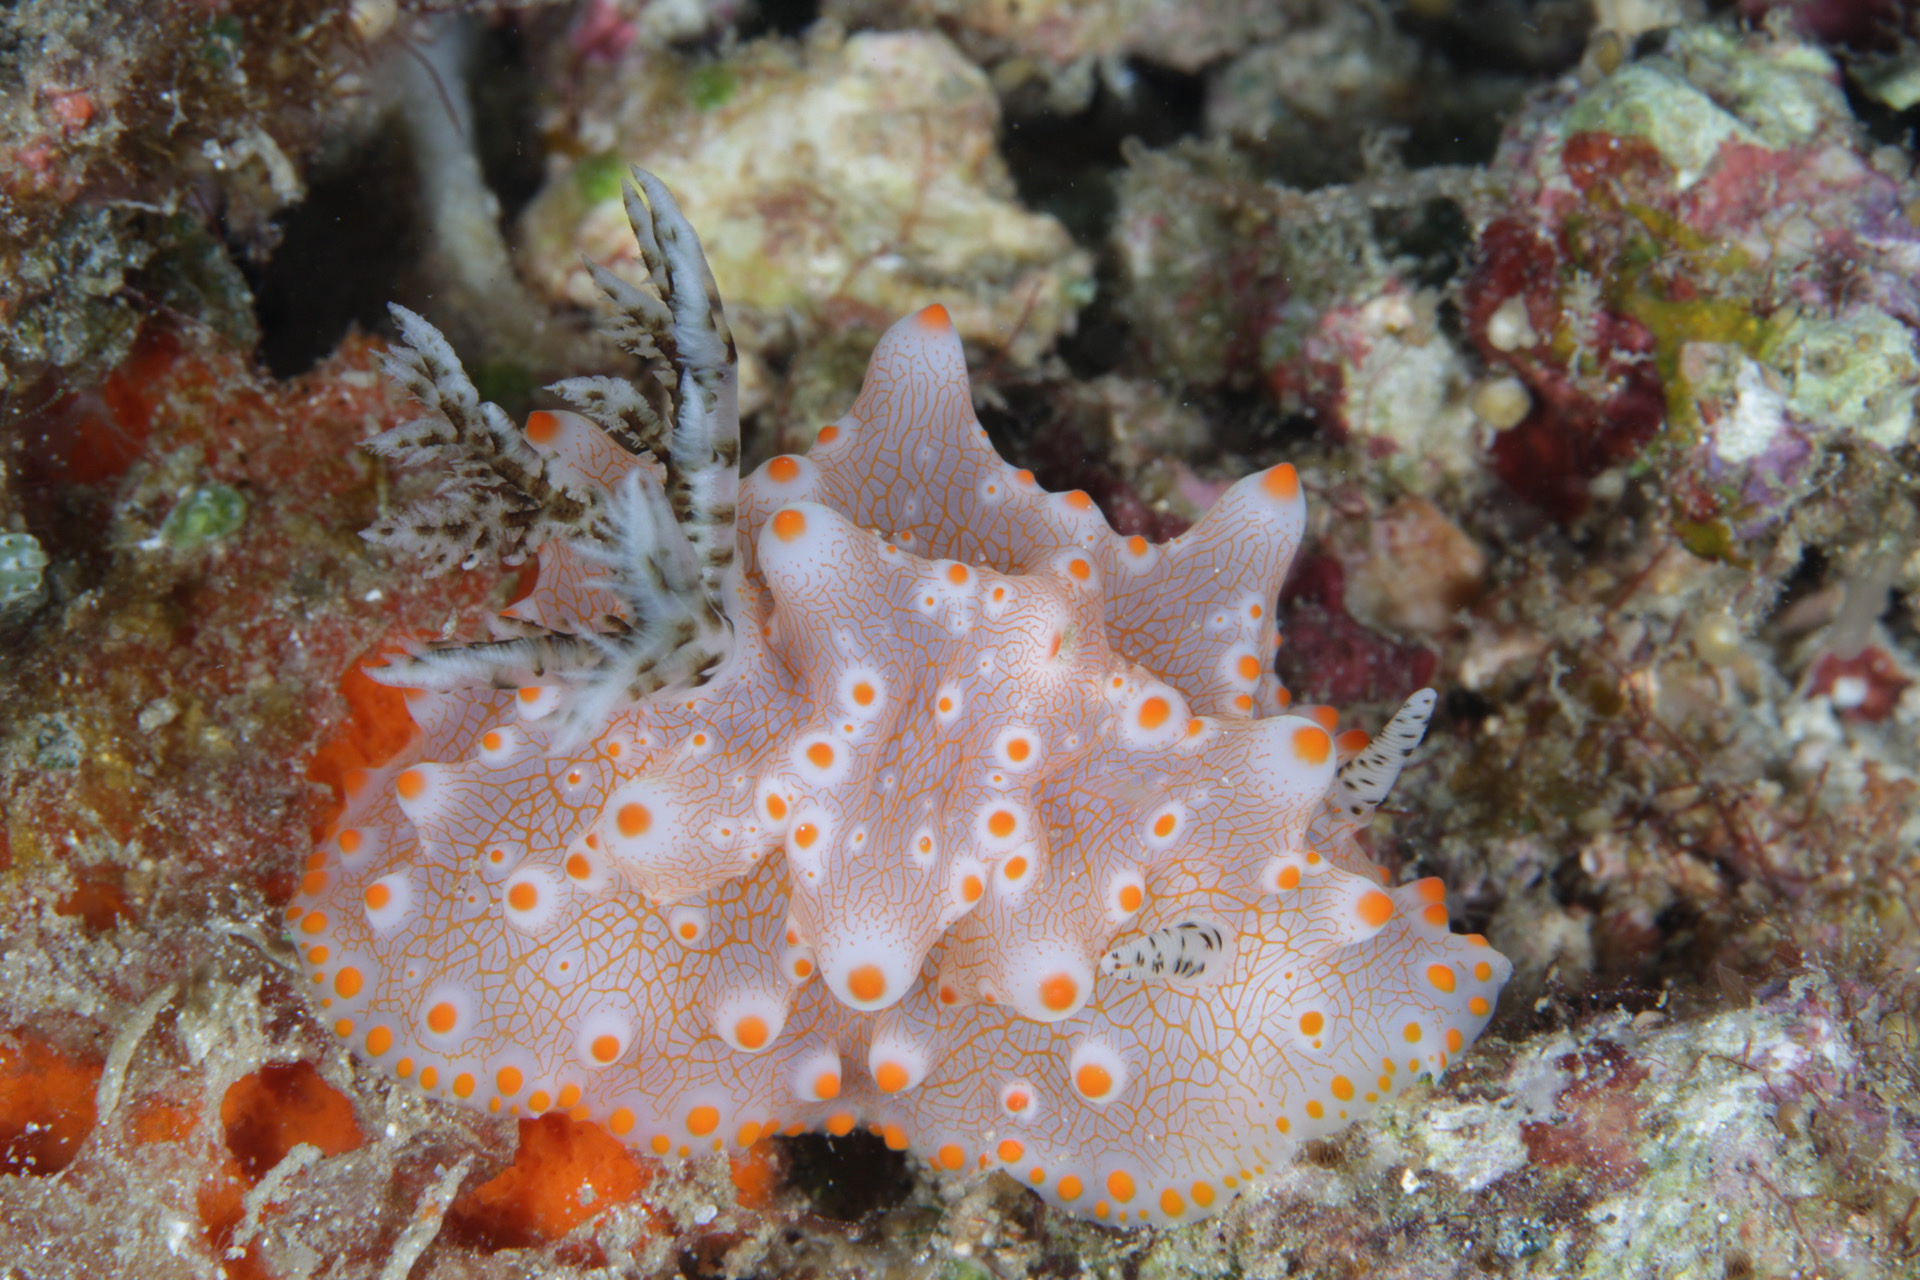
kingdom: Animalia
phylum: Mollusca
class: Gastropoda
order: Nudibranchia
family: Discodorididae
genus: Halgerda
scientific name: Halgerda batangas
